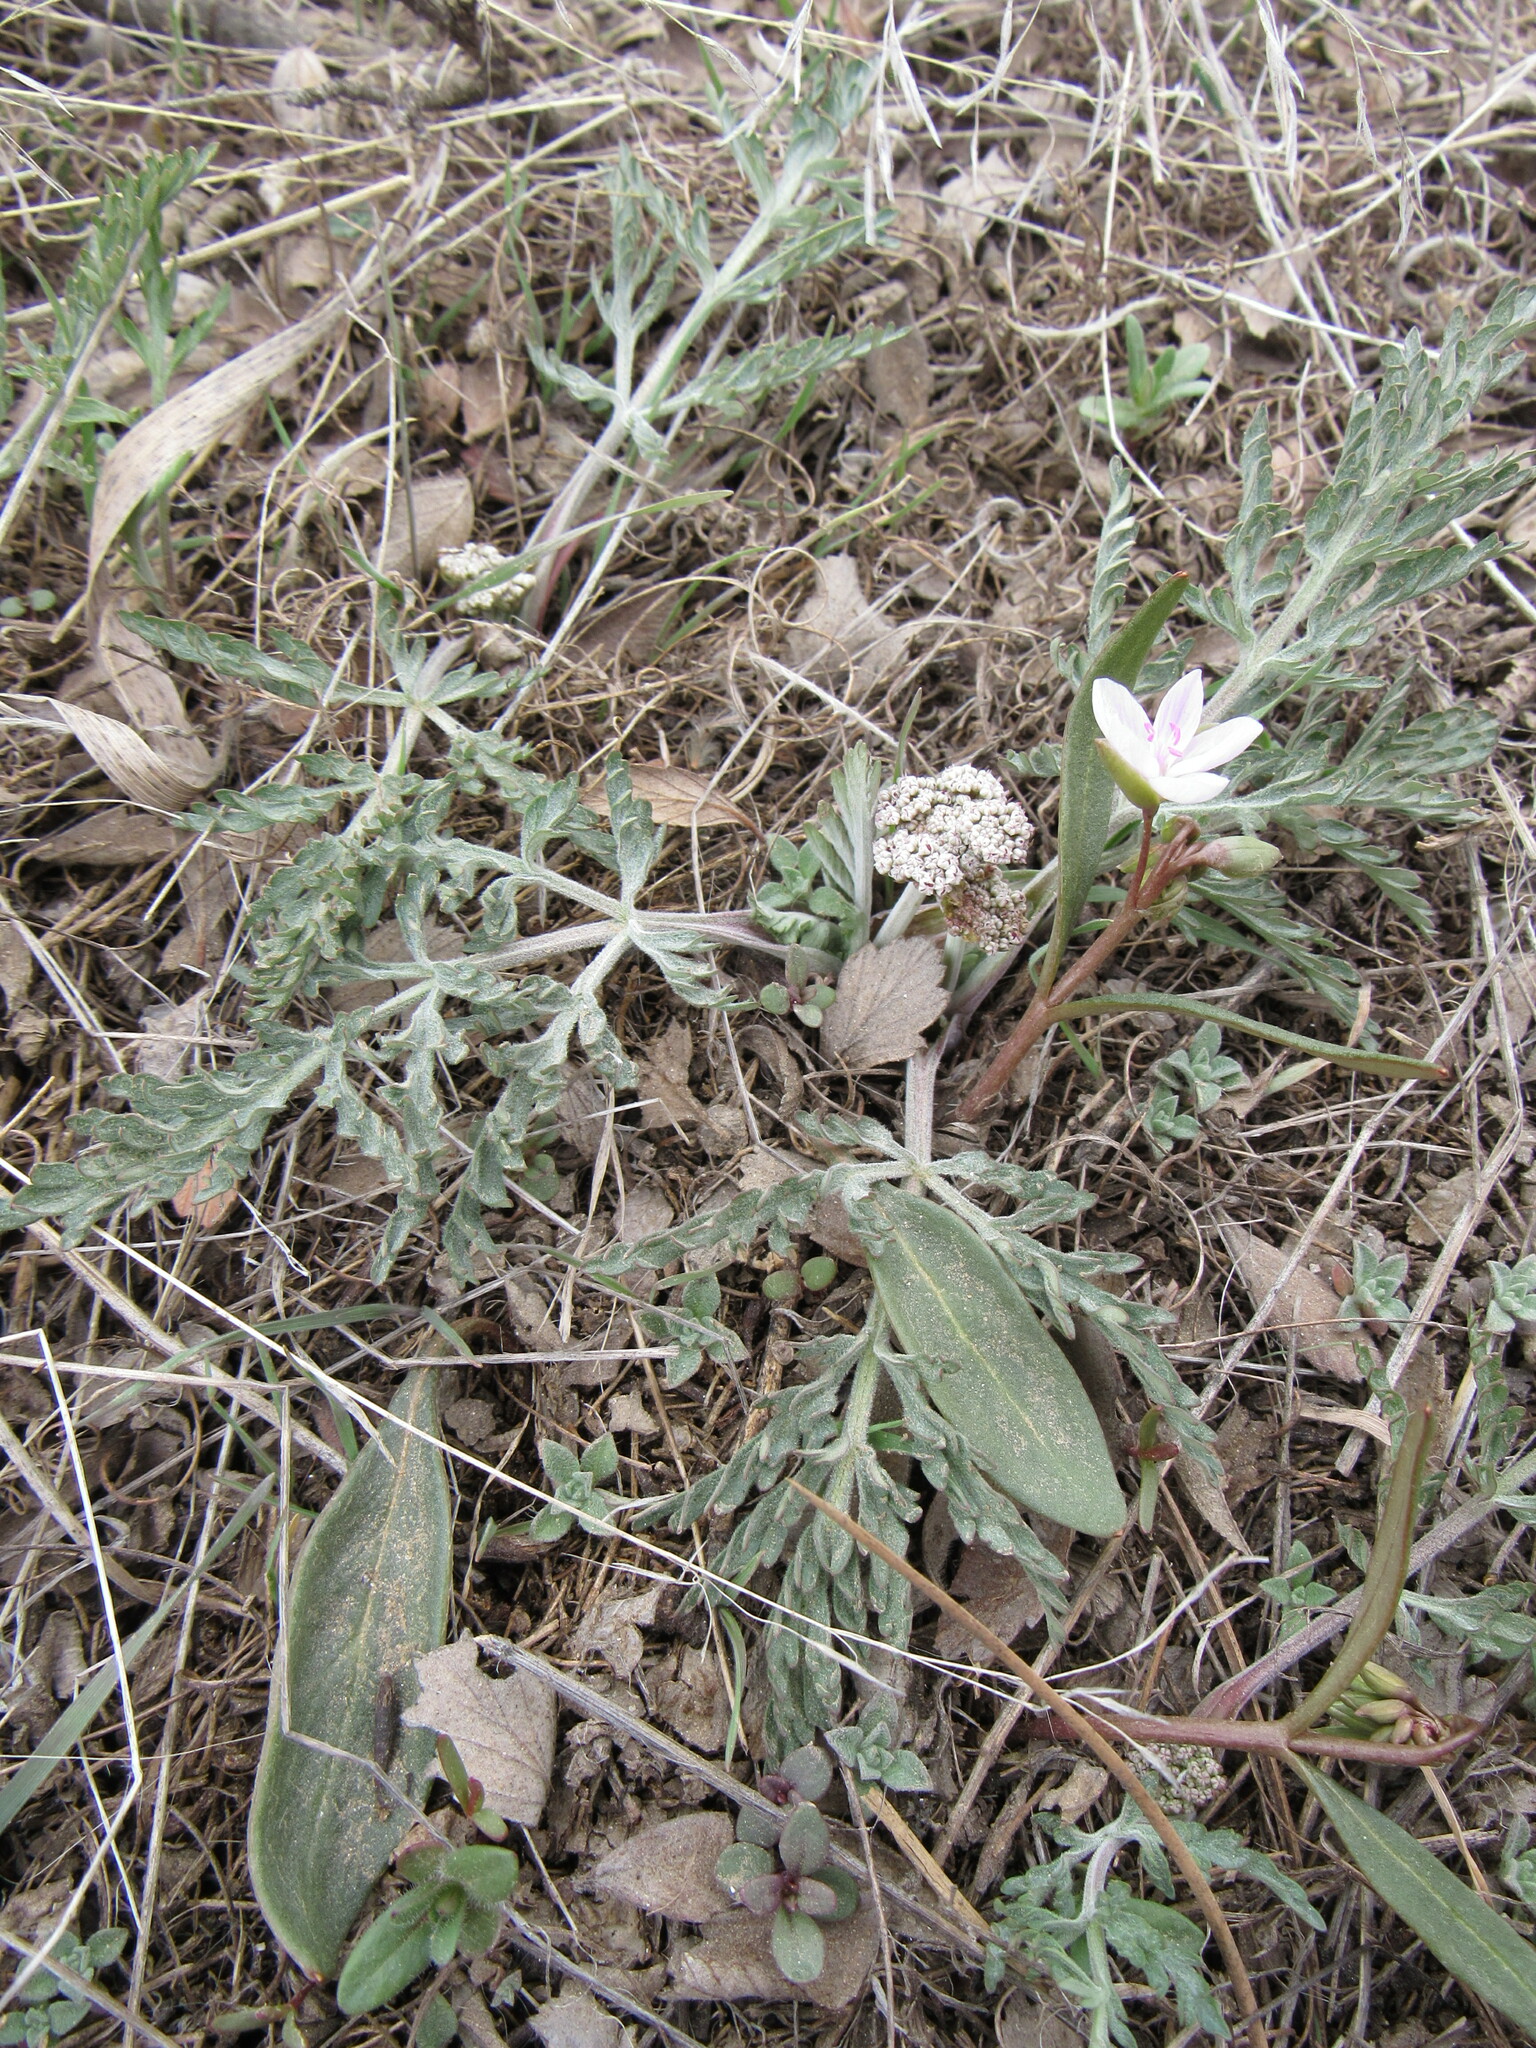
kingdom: Plantae
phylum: Tracheophyta
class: Magnoliopsida
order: Apiales
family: Apiaceae
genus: Lomatium
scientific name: Lomatium orientale
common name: Eastern cous
